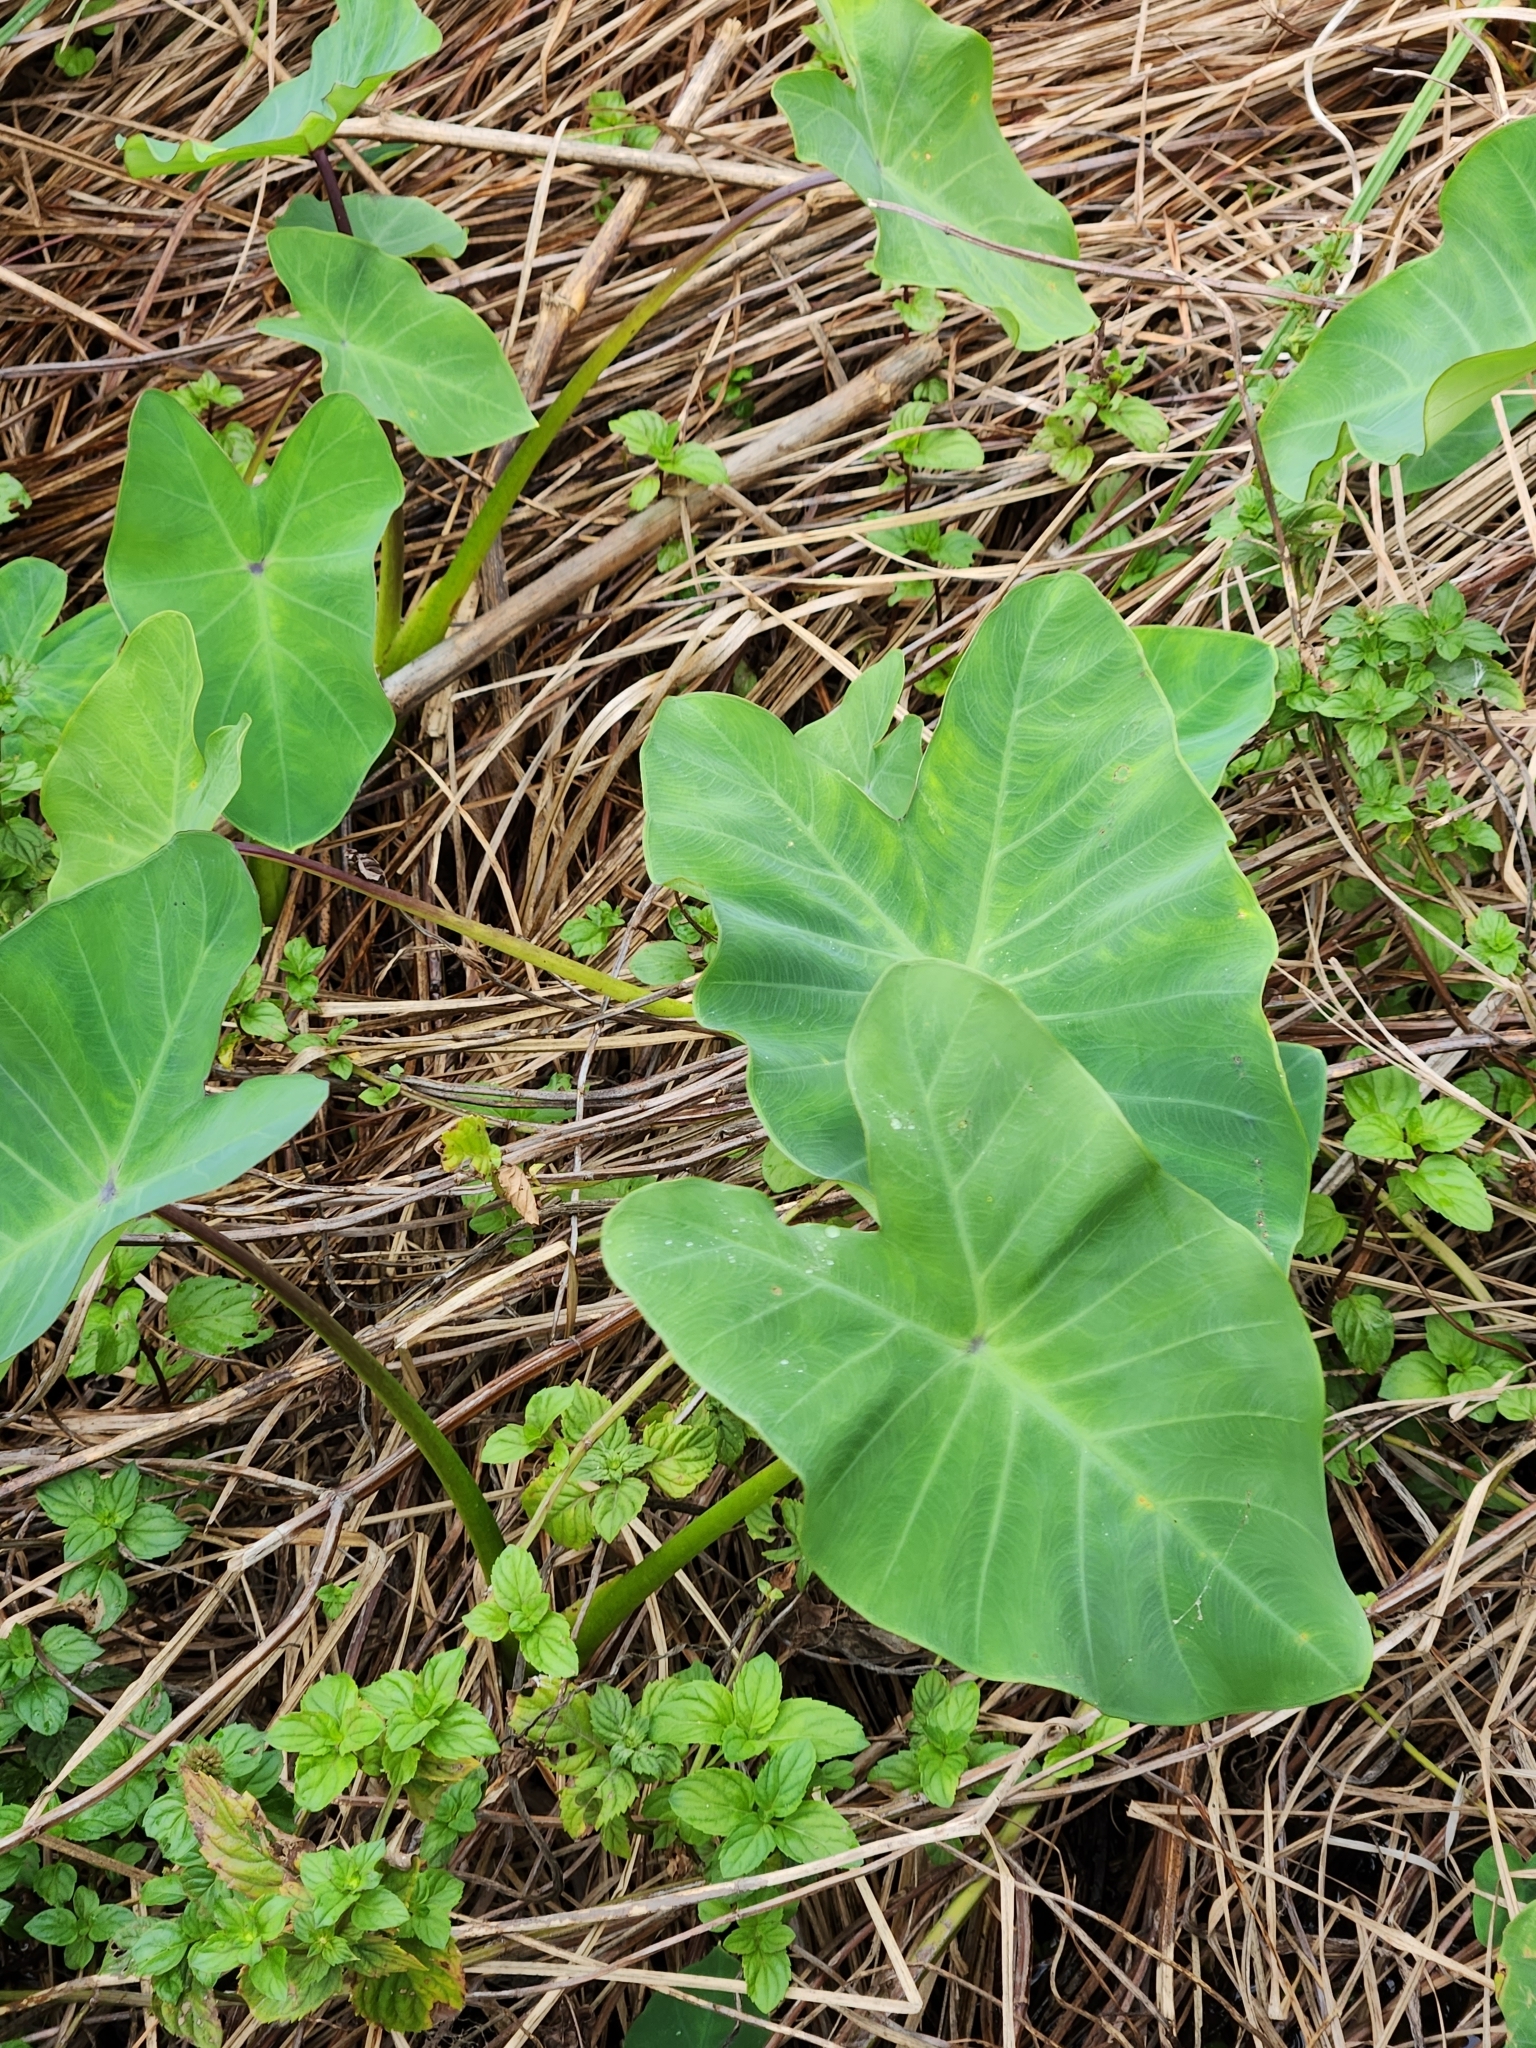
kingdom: Plantae
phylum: Tracheophyta
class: Liliopsida
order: Alismatales
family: Araceae
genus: Colocasia
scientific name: Colocasia esculenta
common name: Taro
